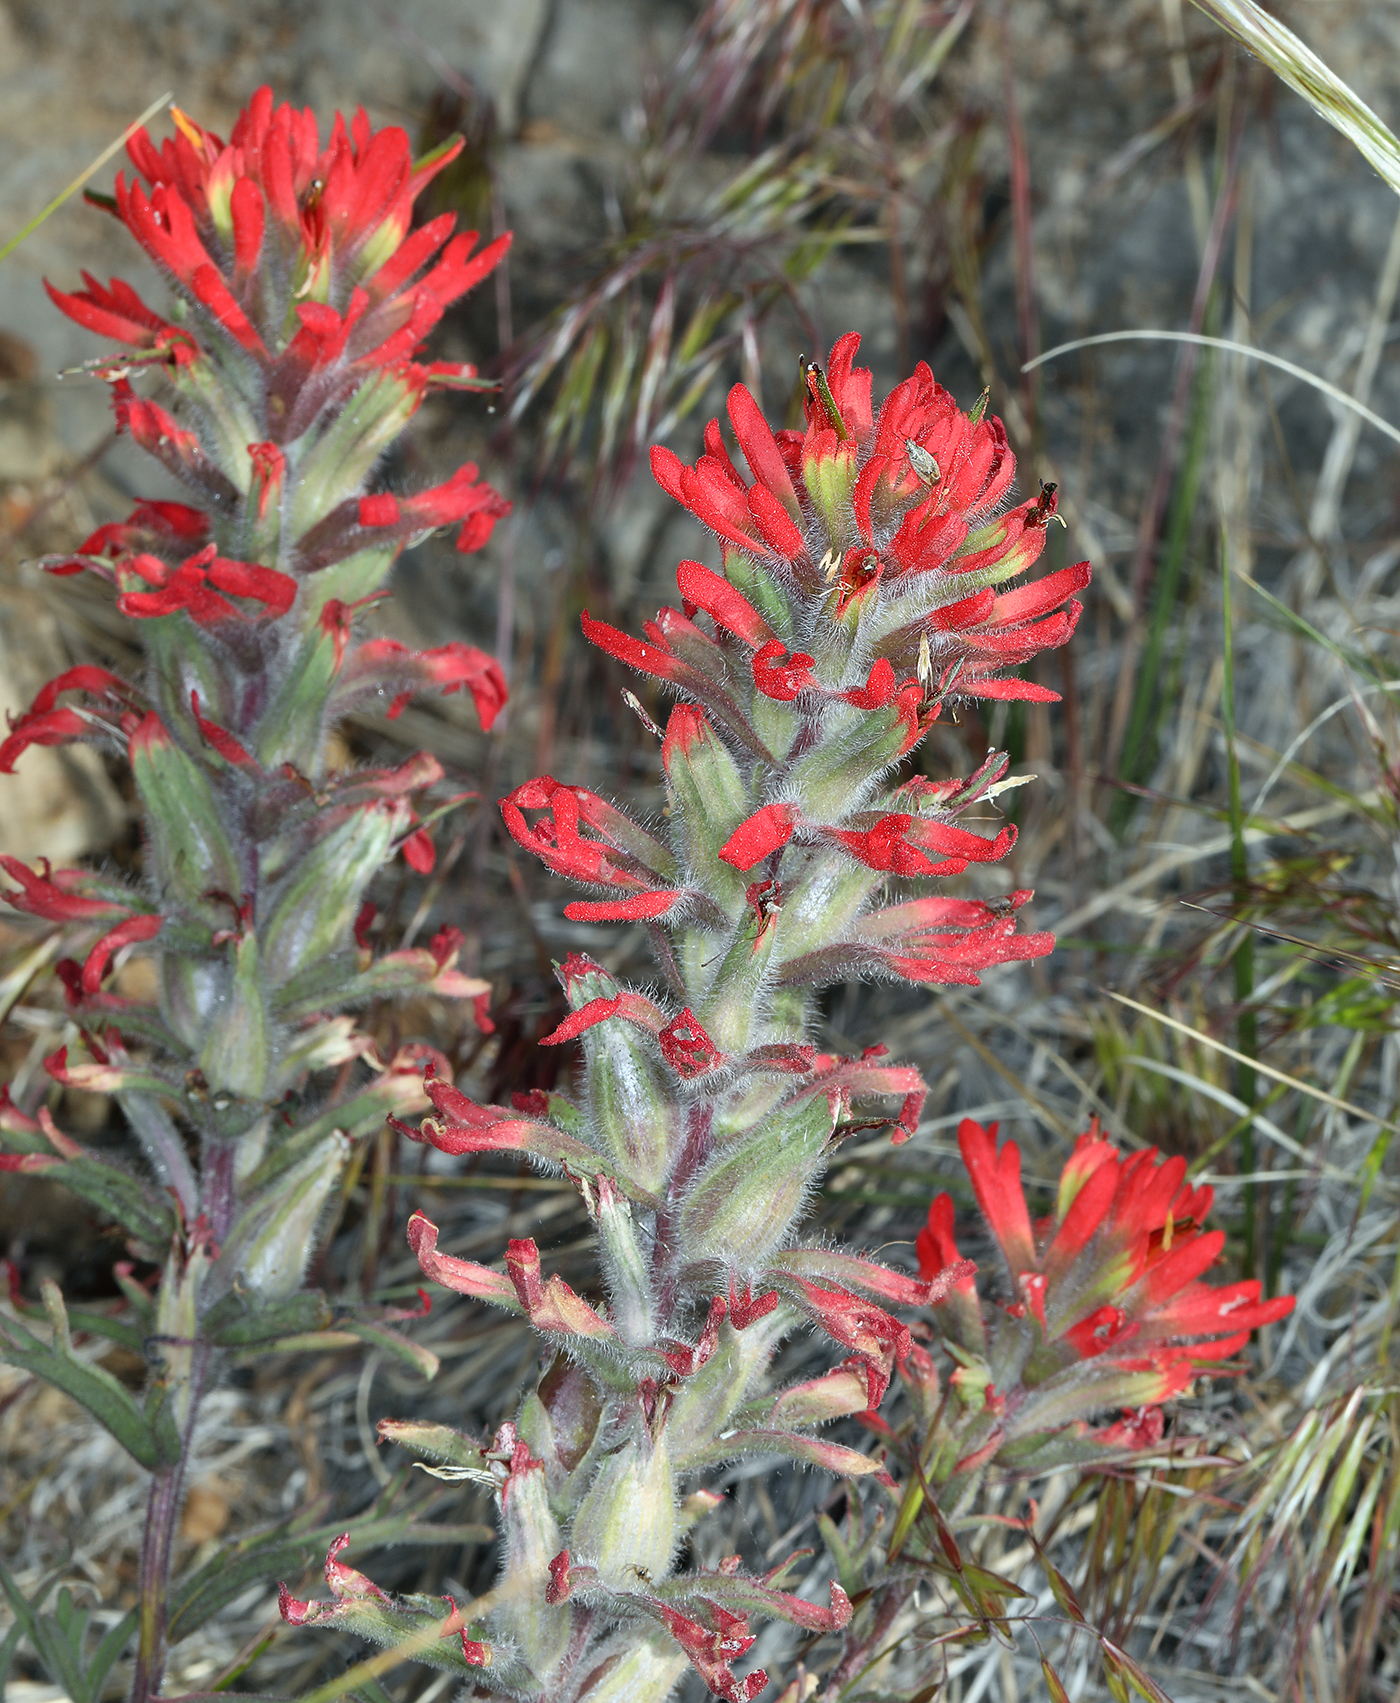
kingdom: Plantae
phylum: Tracheophyta
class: Magnoliopsida
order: Lamiales
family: Orobanchaceae
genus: Castilleja
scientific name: Castilleja chromosa
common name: Desert paintbrush
